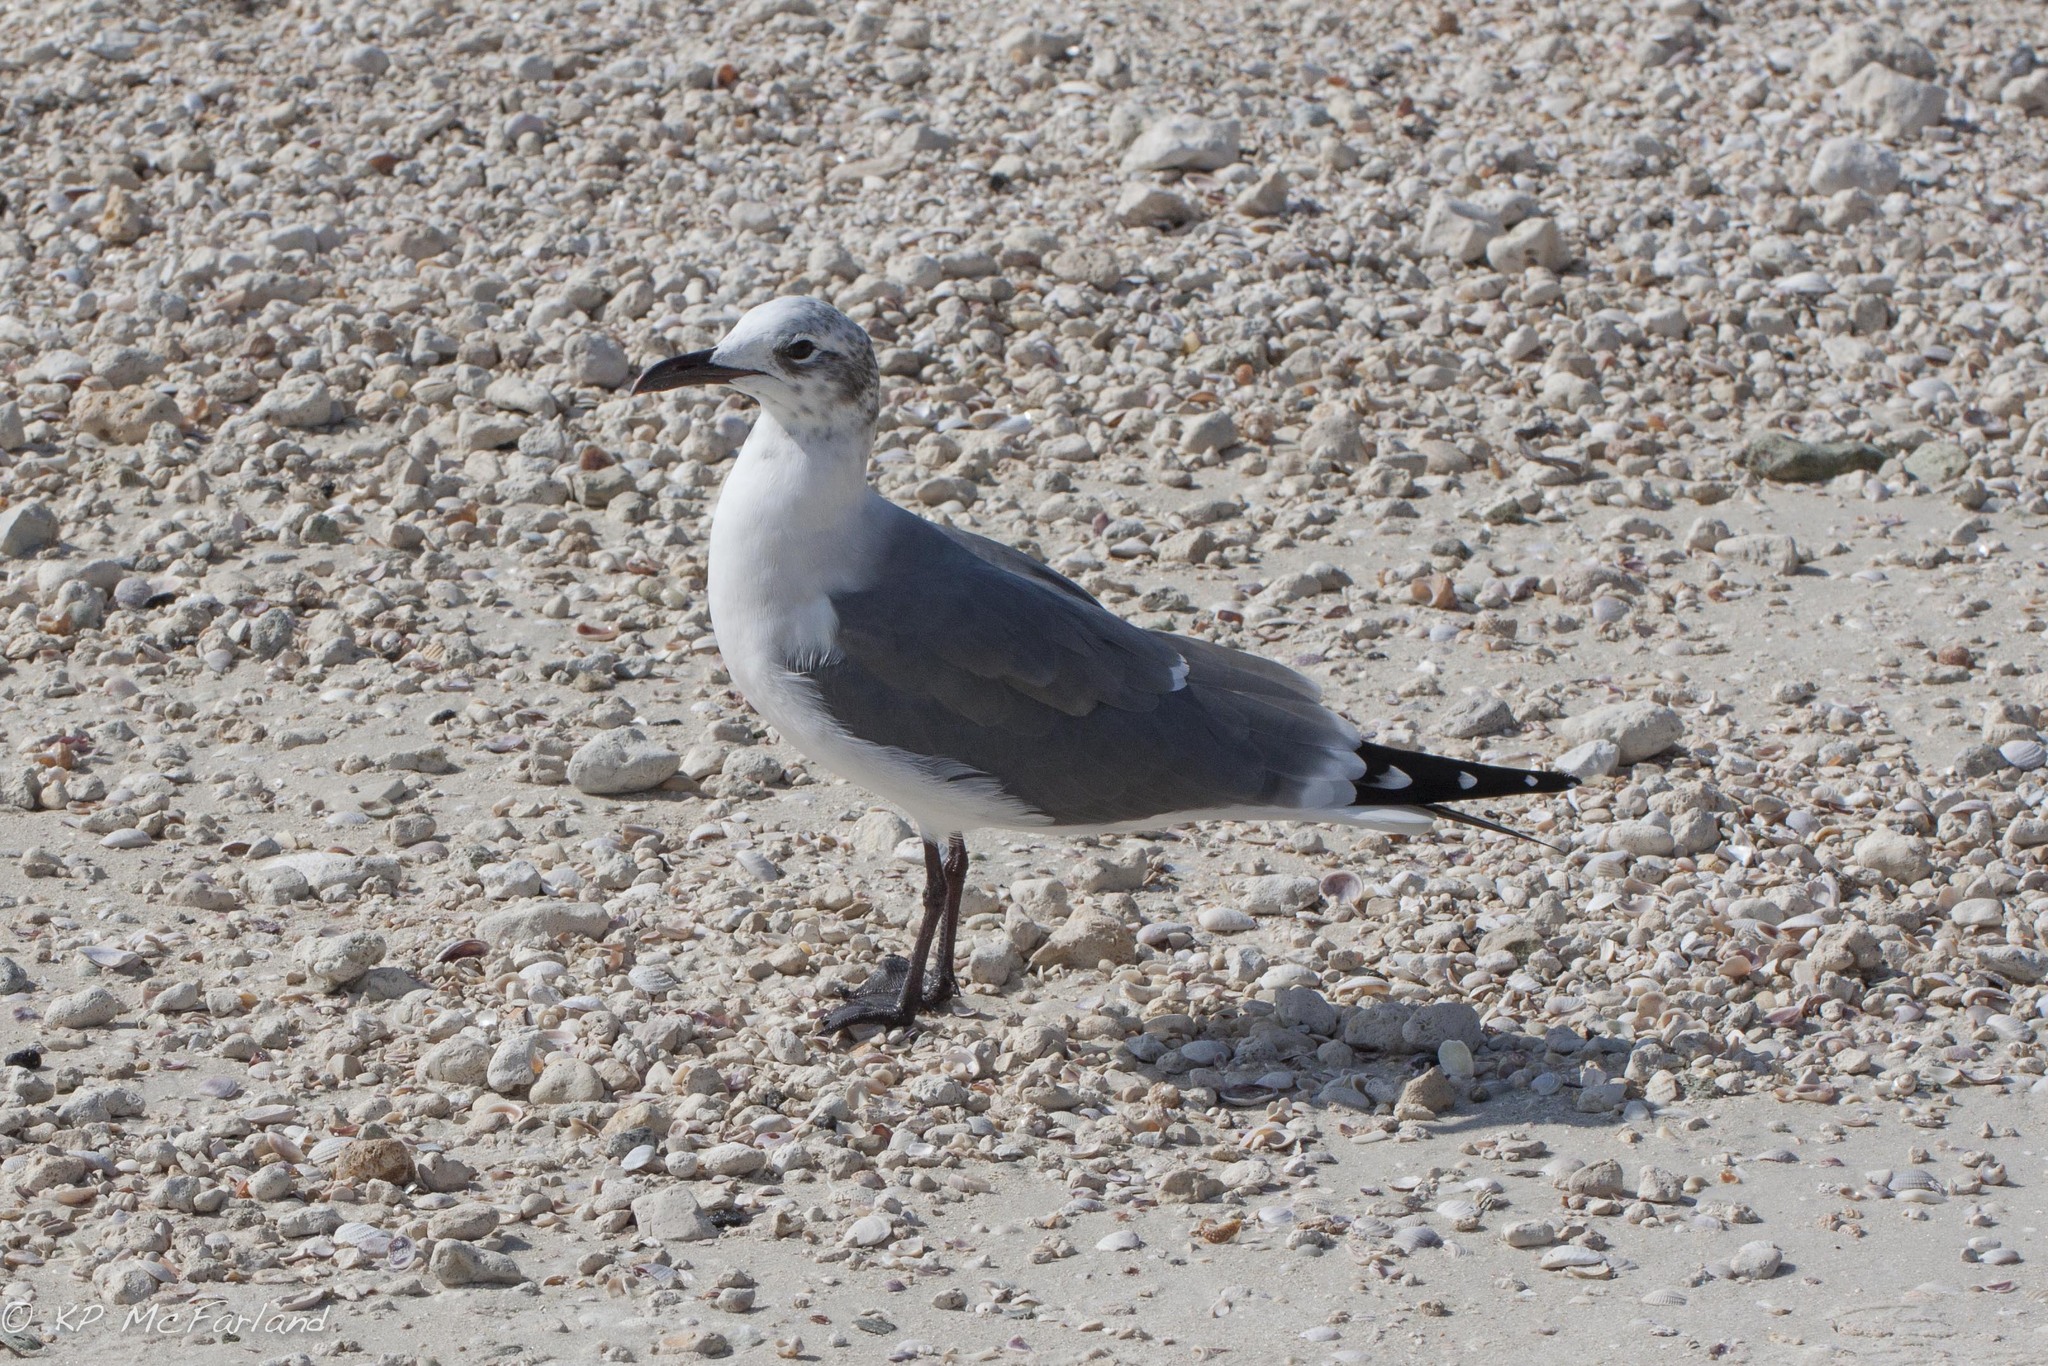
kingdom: Animalia
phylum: Chordata
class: Aves
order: Charadriiformes
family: Laridae
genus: Leucophaeus
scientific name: Leucophaeus atricilla
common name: Laughing gull
